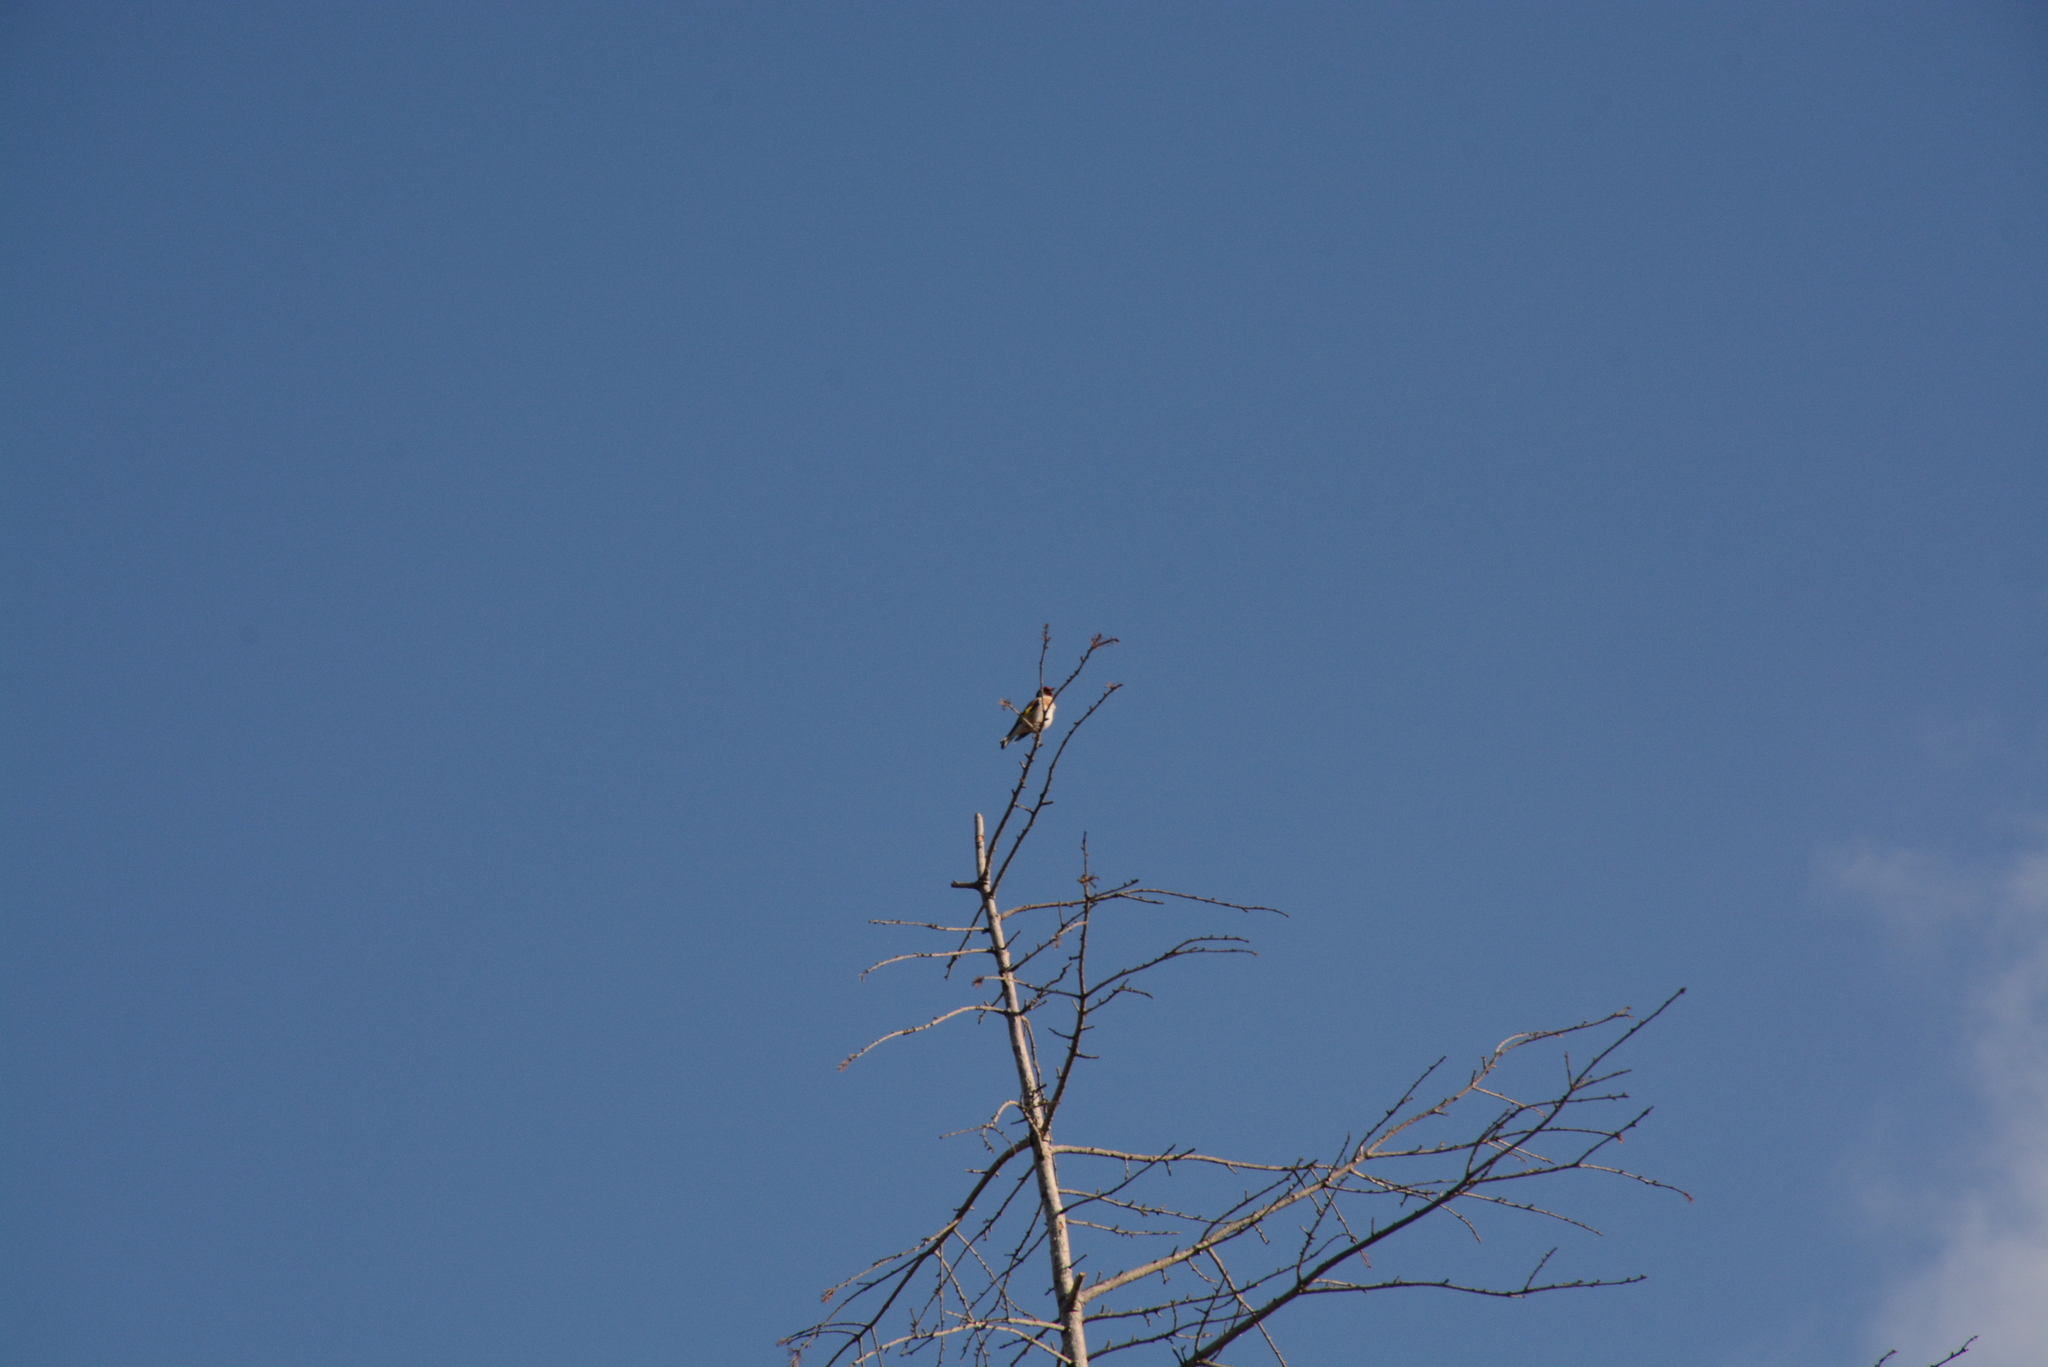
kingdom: Animalia
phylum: Chordata
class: Aves
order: Passeriformes
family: Fringillidae
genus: Carduelis
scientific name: Carduelis carduelis
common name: European goldfinch
